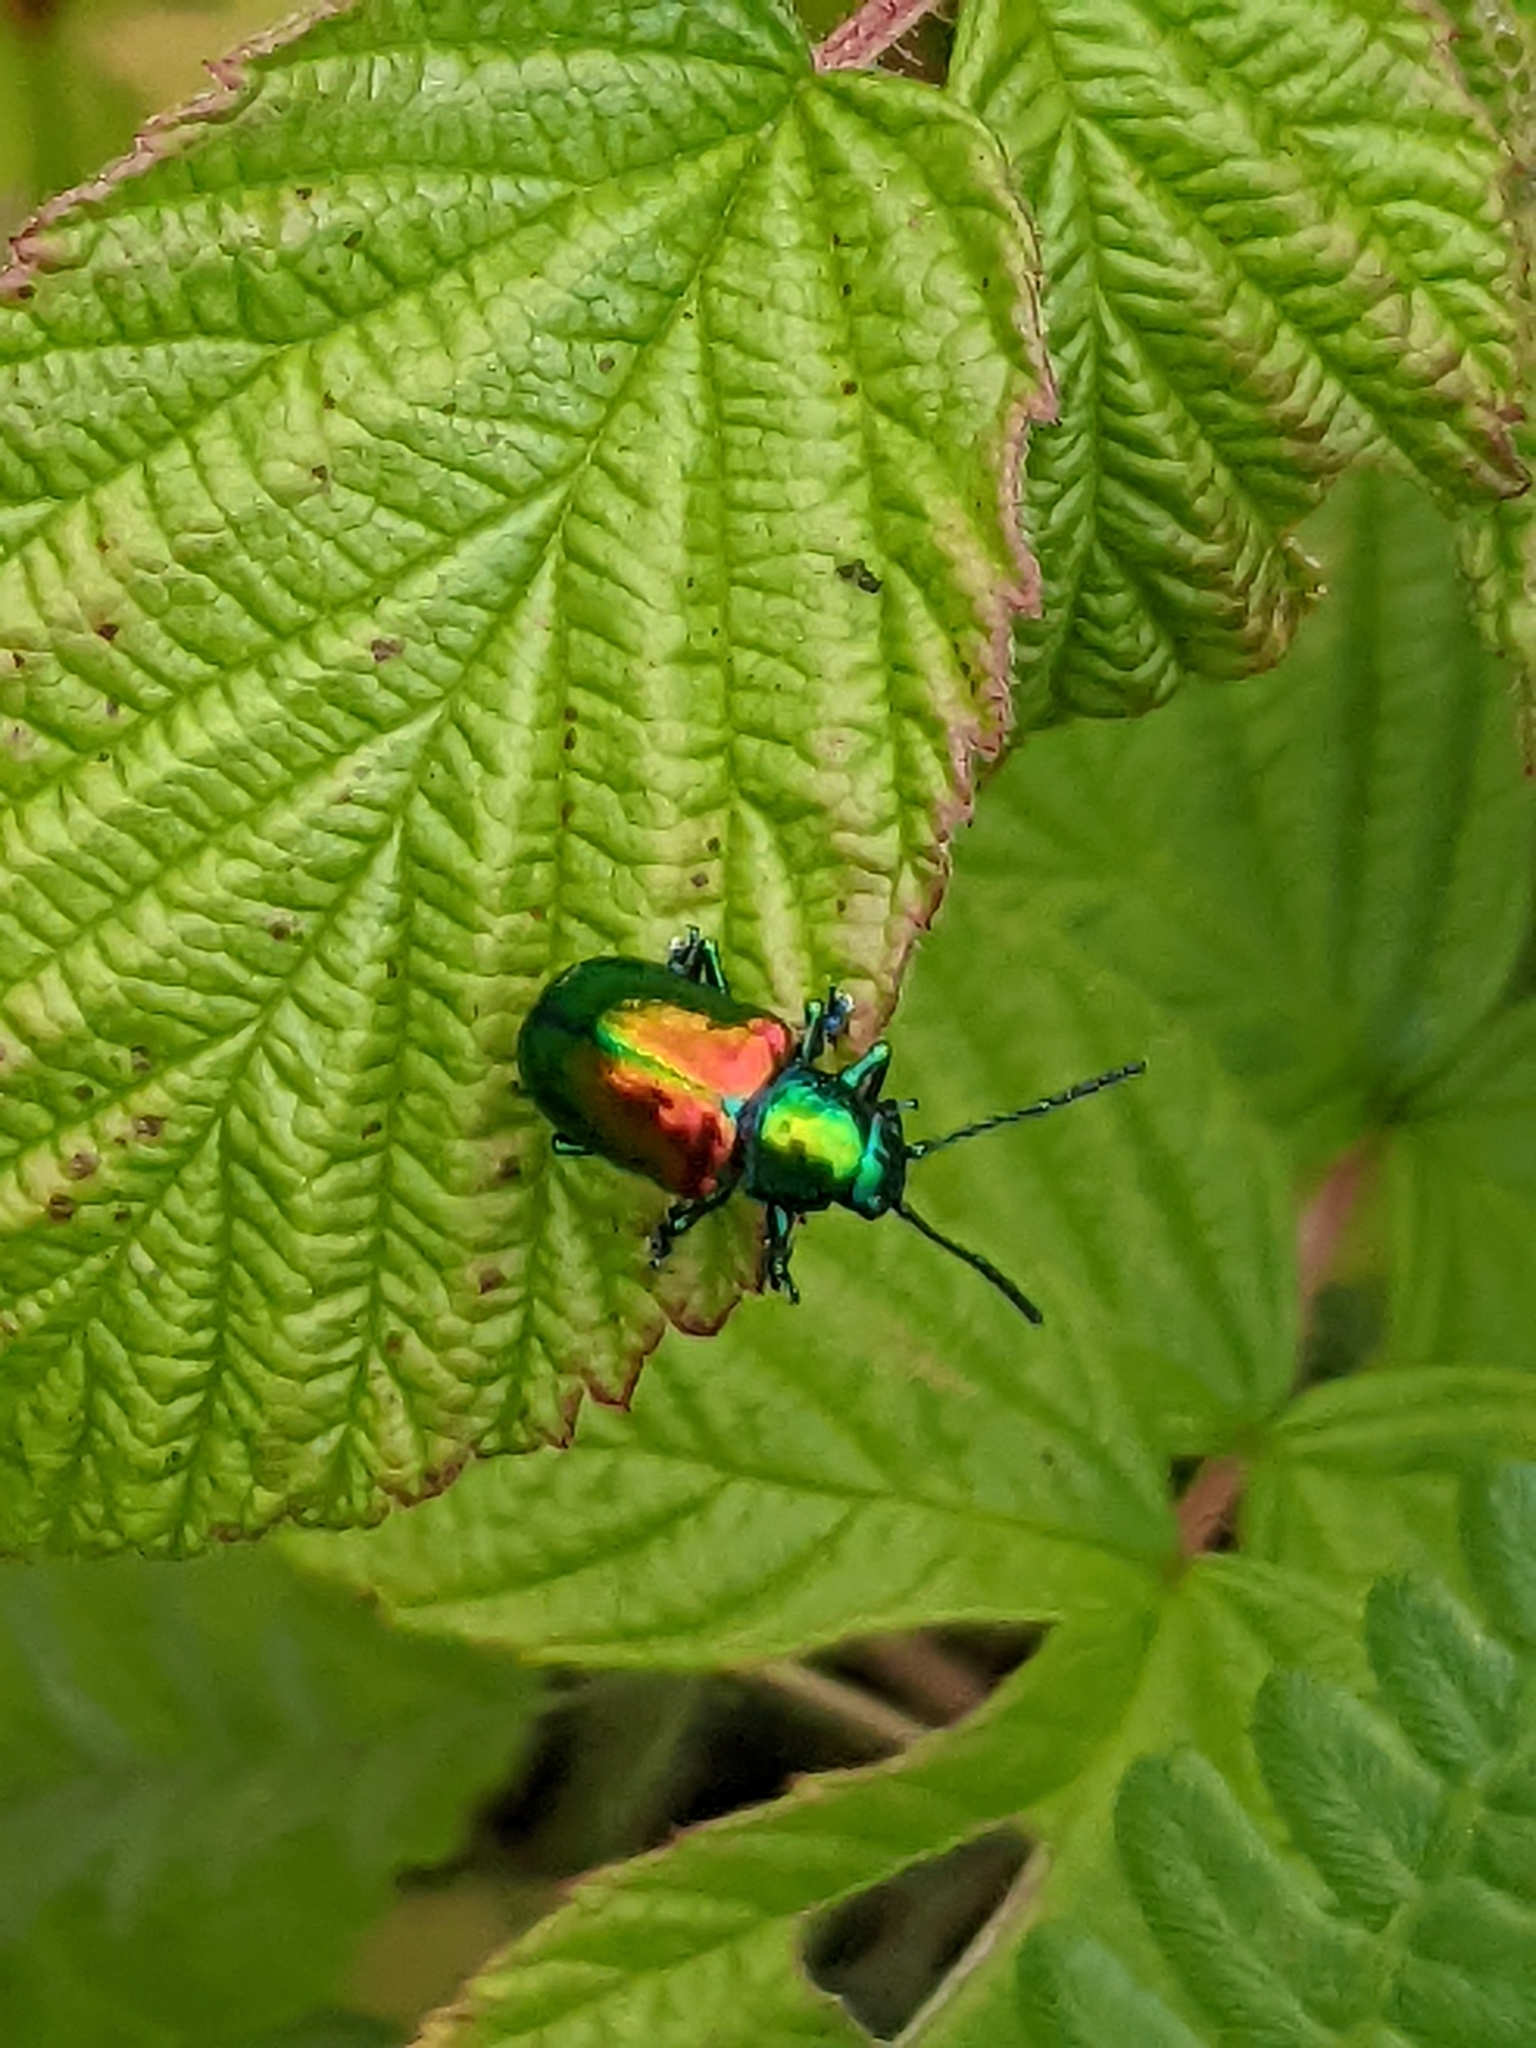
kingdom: Animalia
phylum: Arthropoda
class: Insecta
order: Coleoptera
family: Chrysomelidae
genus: Chrysochus
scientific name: Chrysochus auratus
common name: Dogbane leaf beetle
